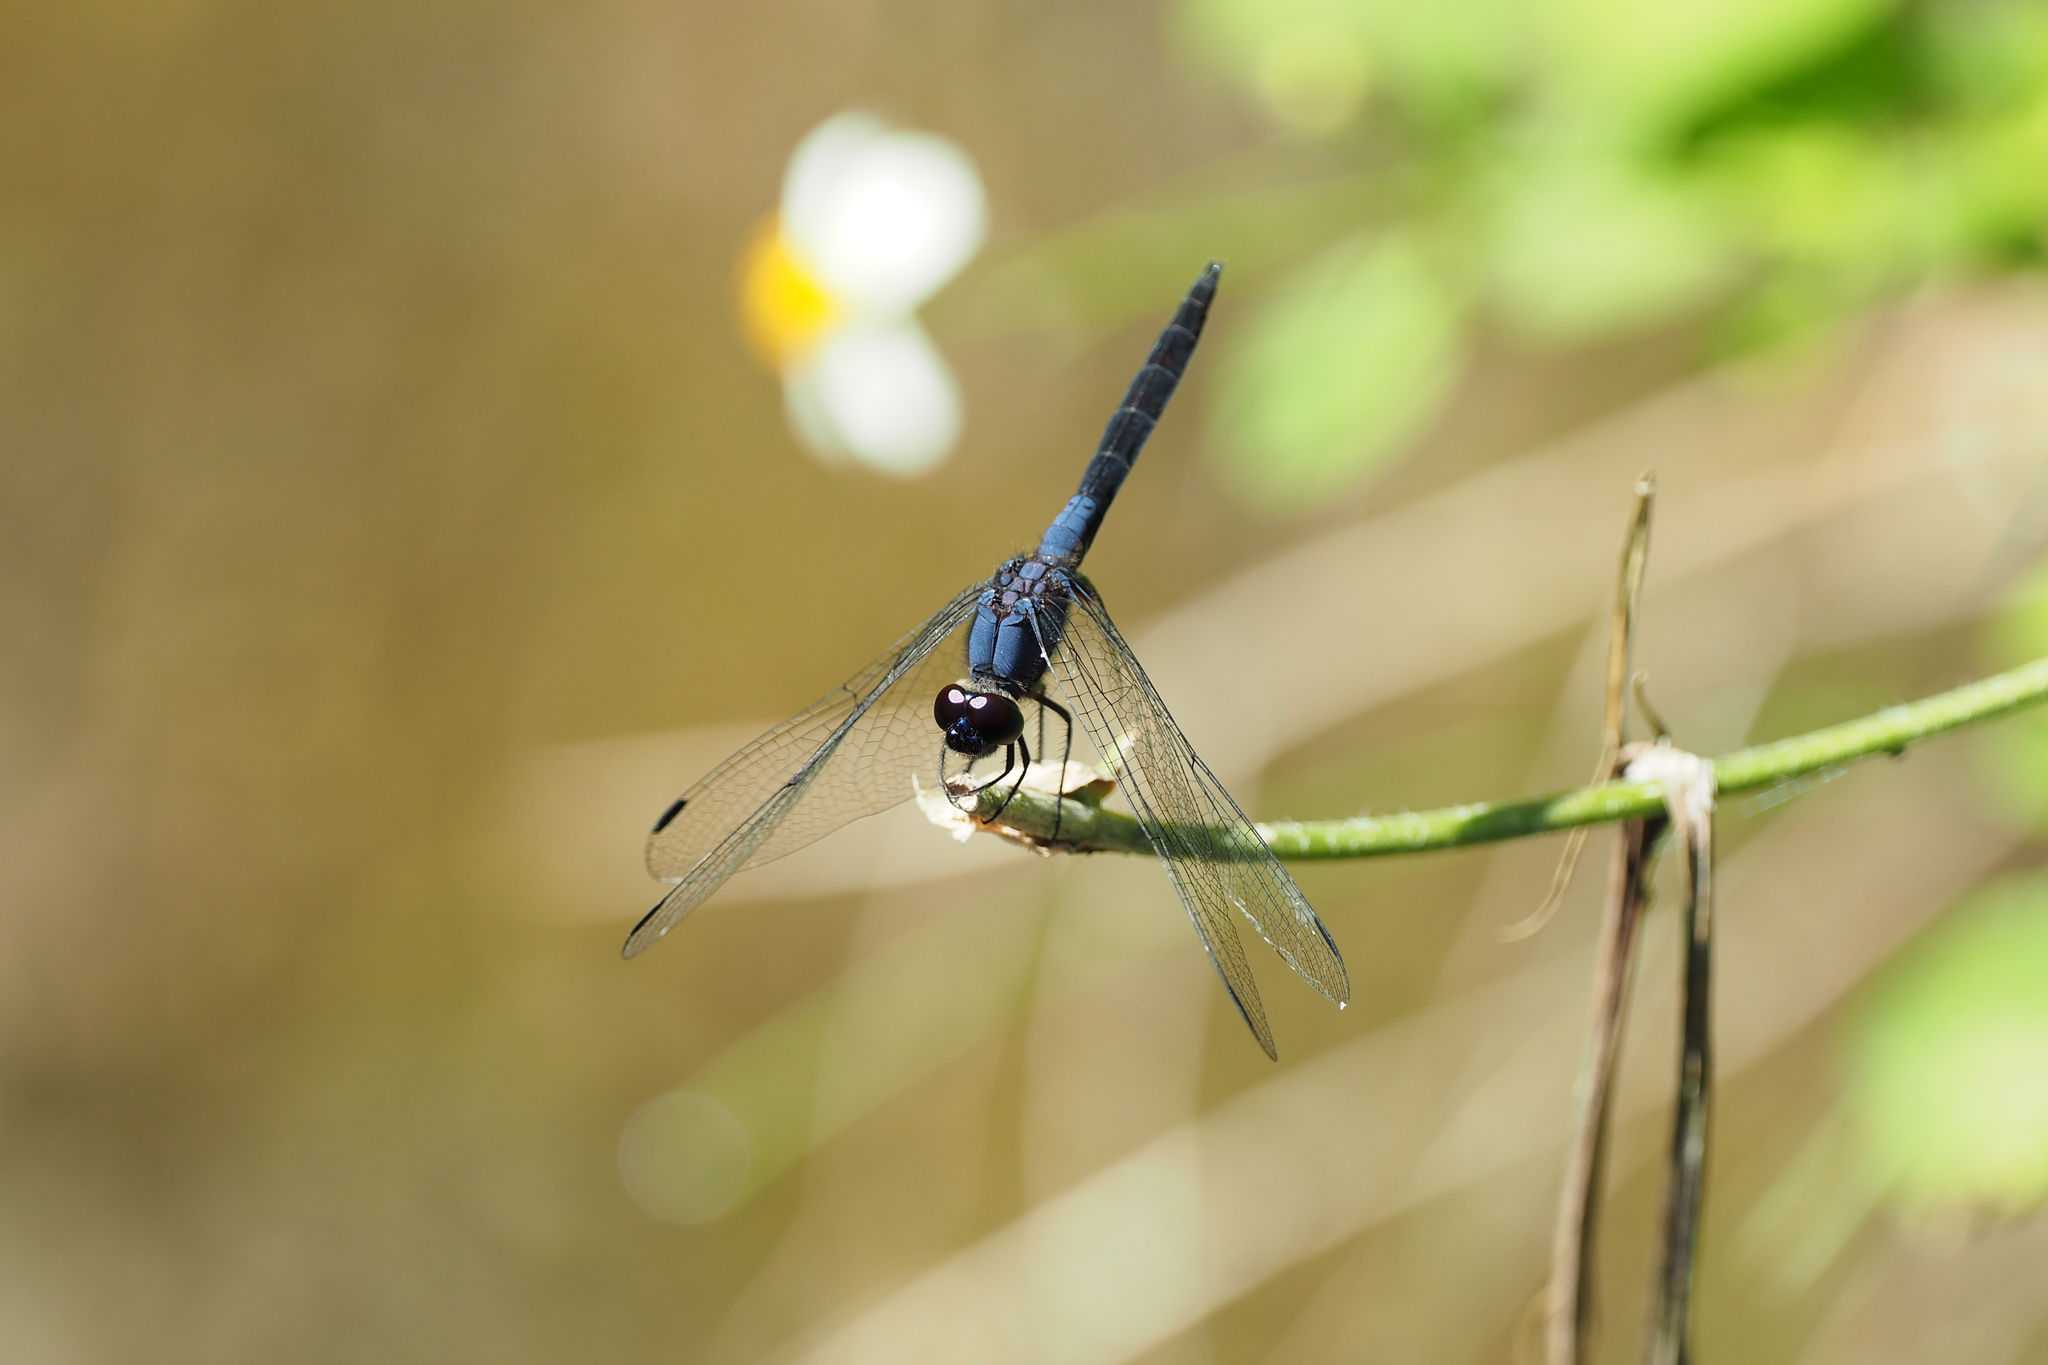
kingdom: Animalia
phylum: Arthropoda
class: Insecta
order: Odonata
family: Libellulidae
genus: Trithemis
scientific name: Trithemis festiva
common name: Indigo dropwing
